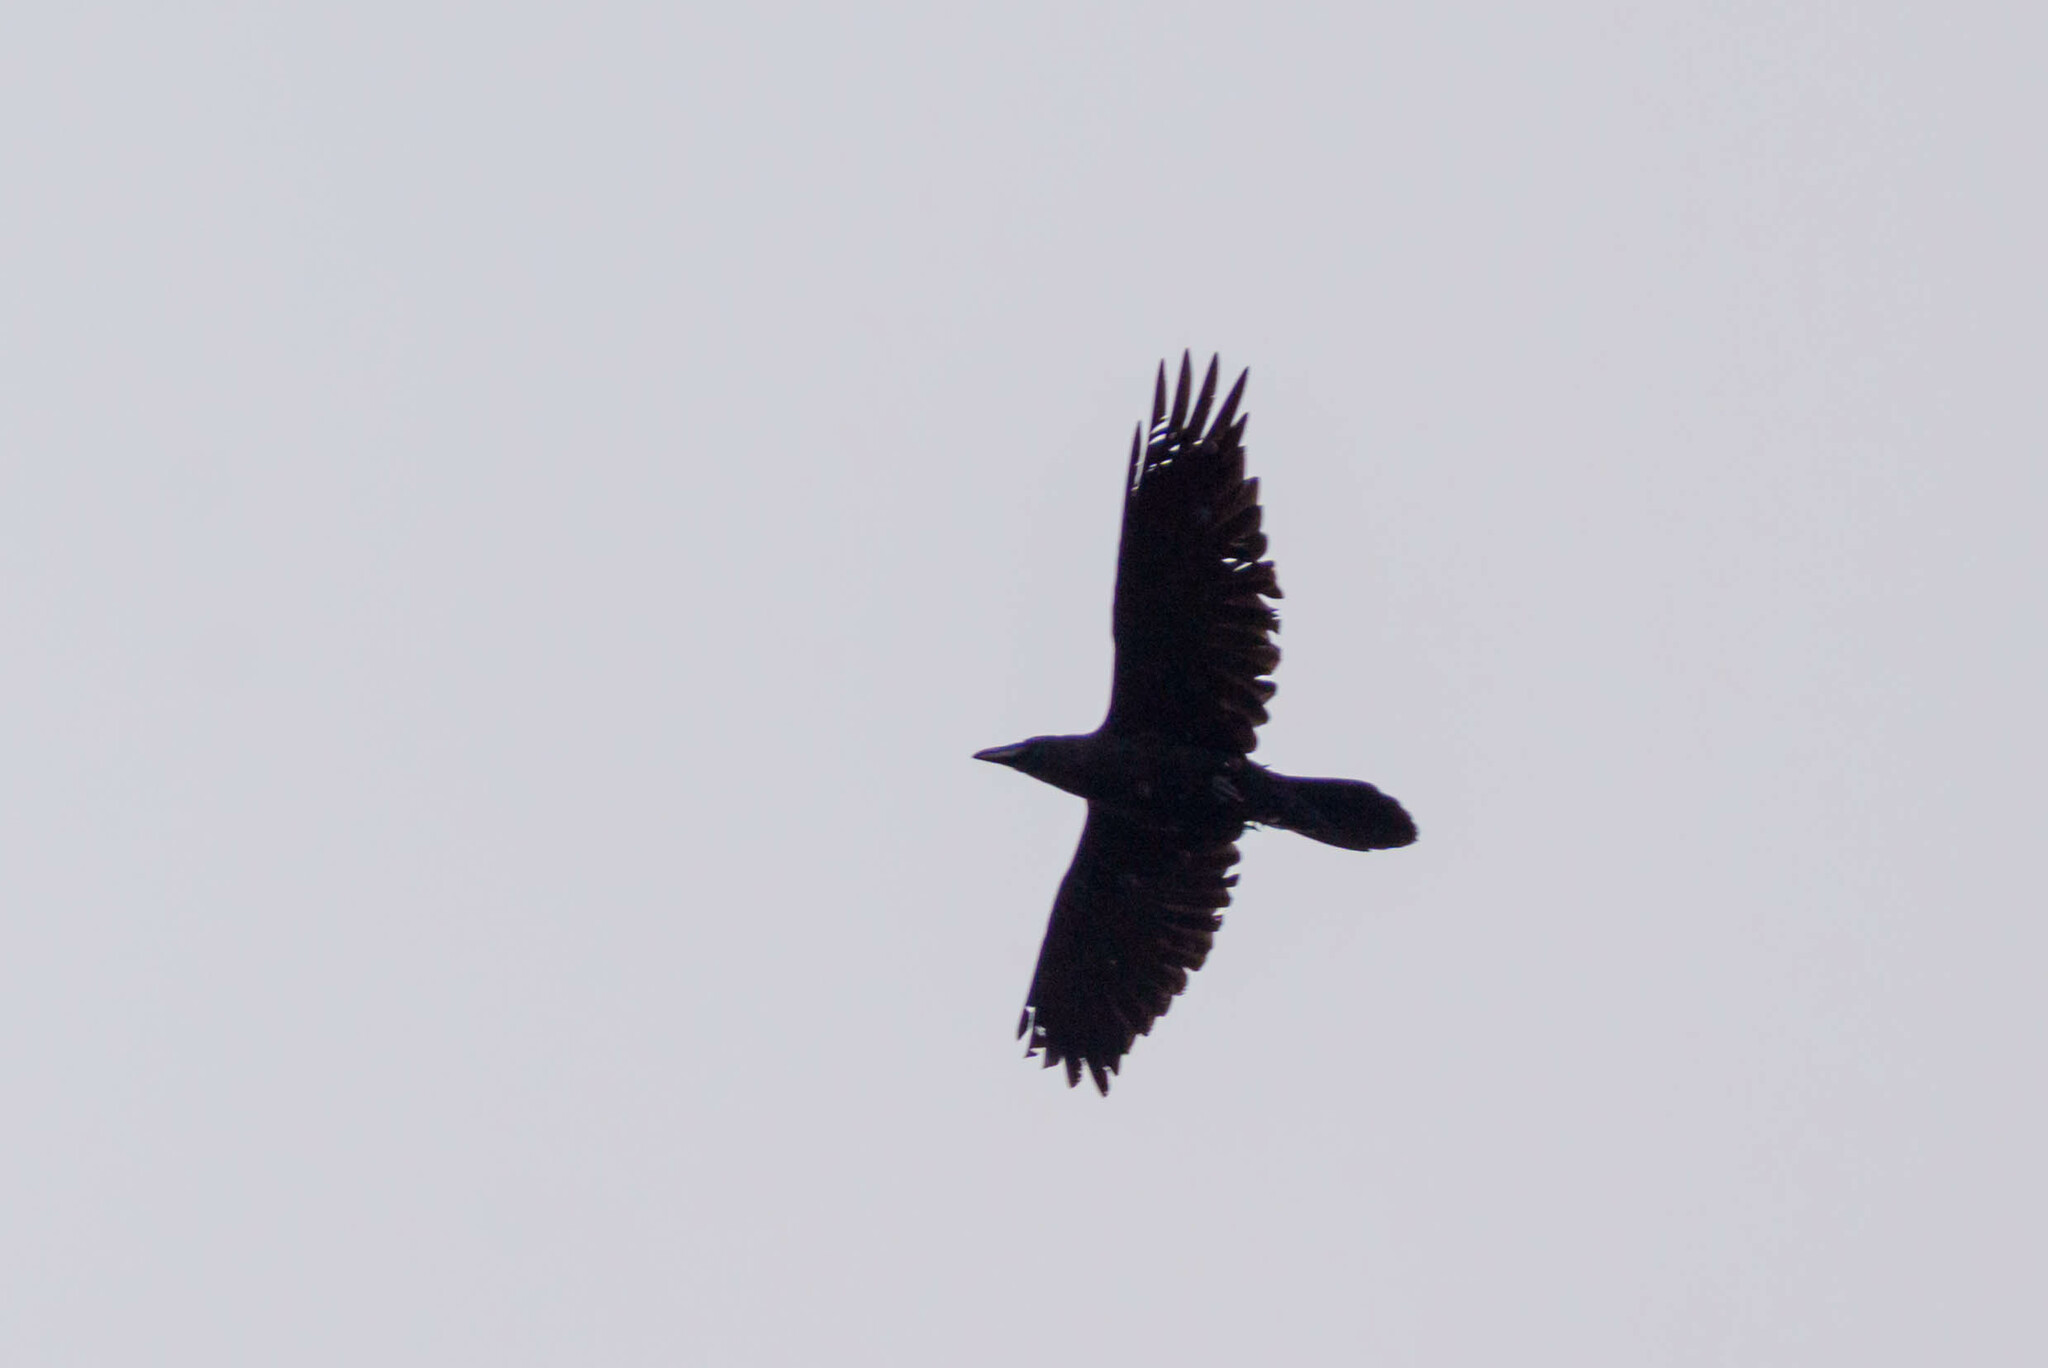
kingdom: Animalia
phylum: Chordata
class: Aves
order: Passeriformes
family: Corvidae
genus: Corvus
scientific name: Corvus corax
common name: Common raven
